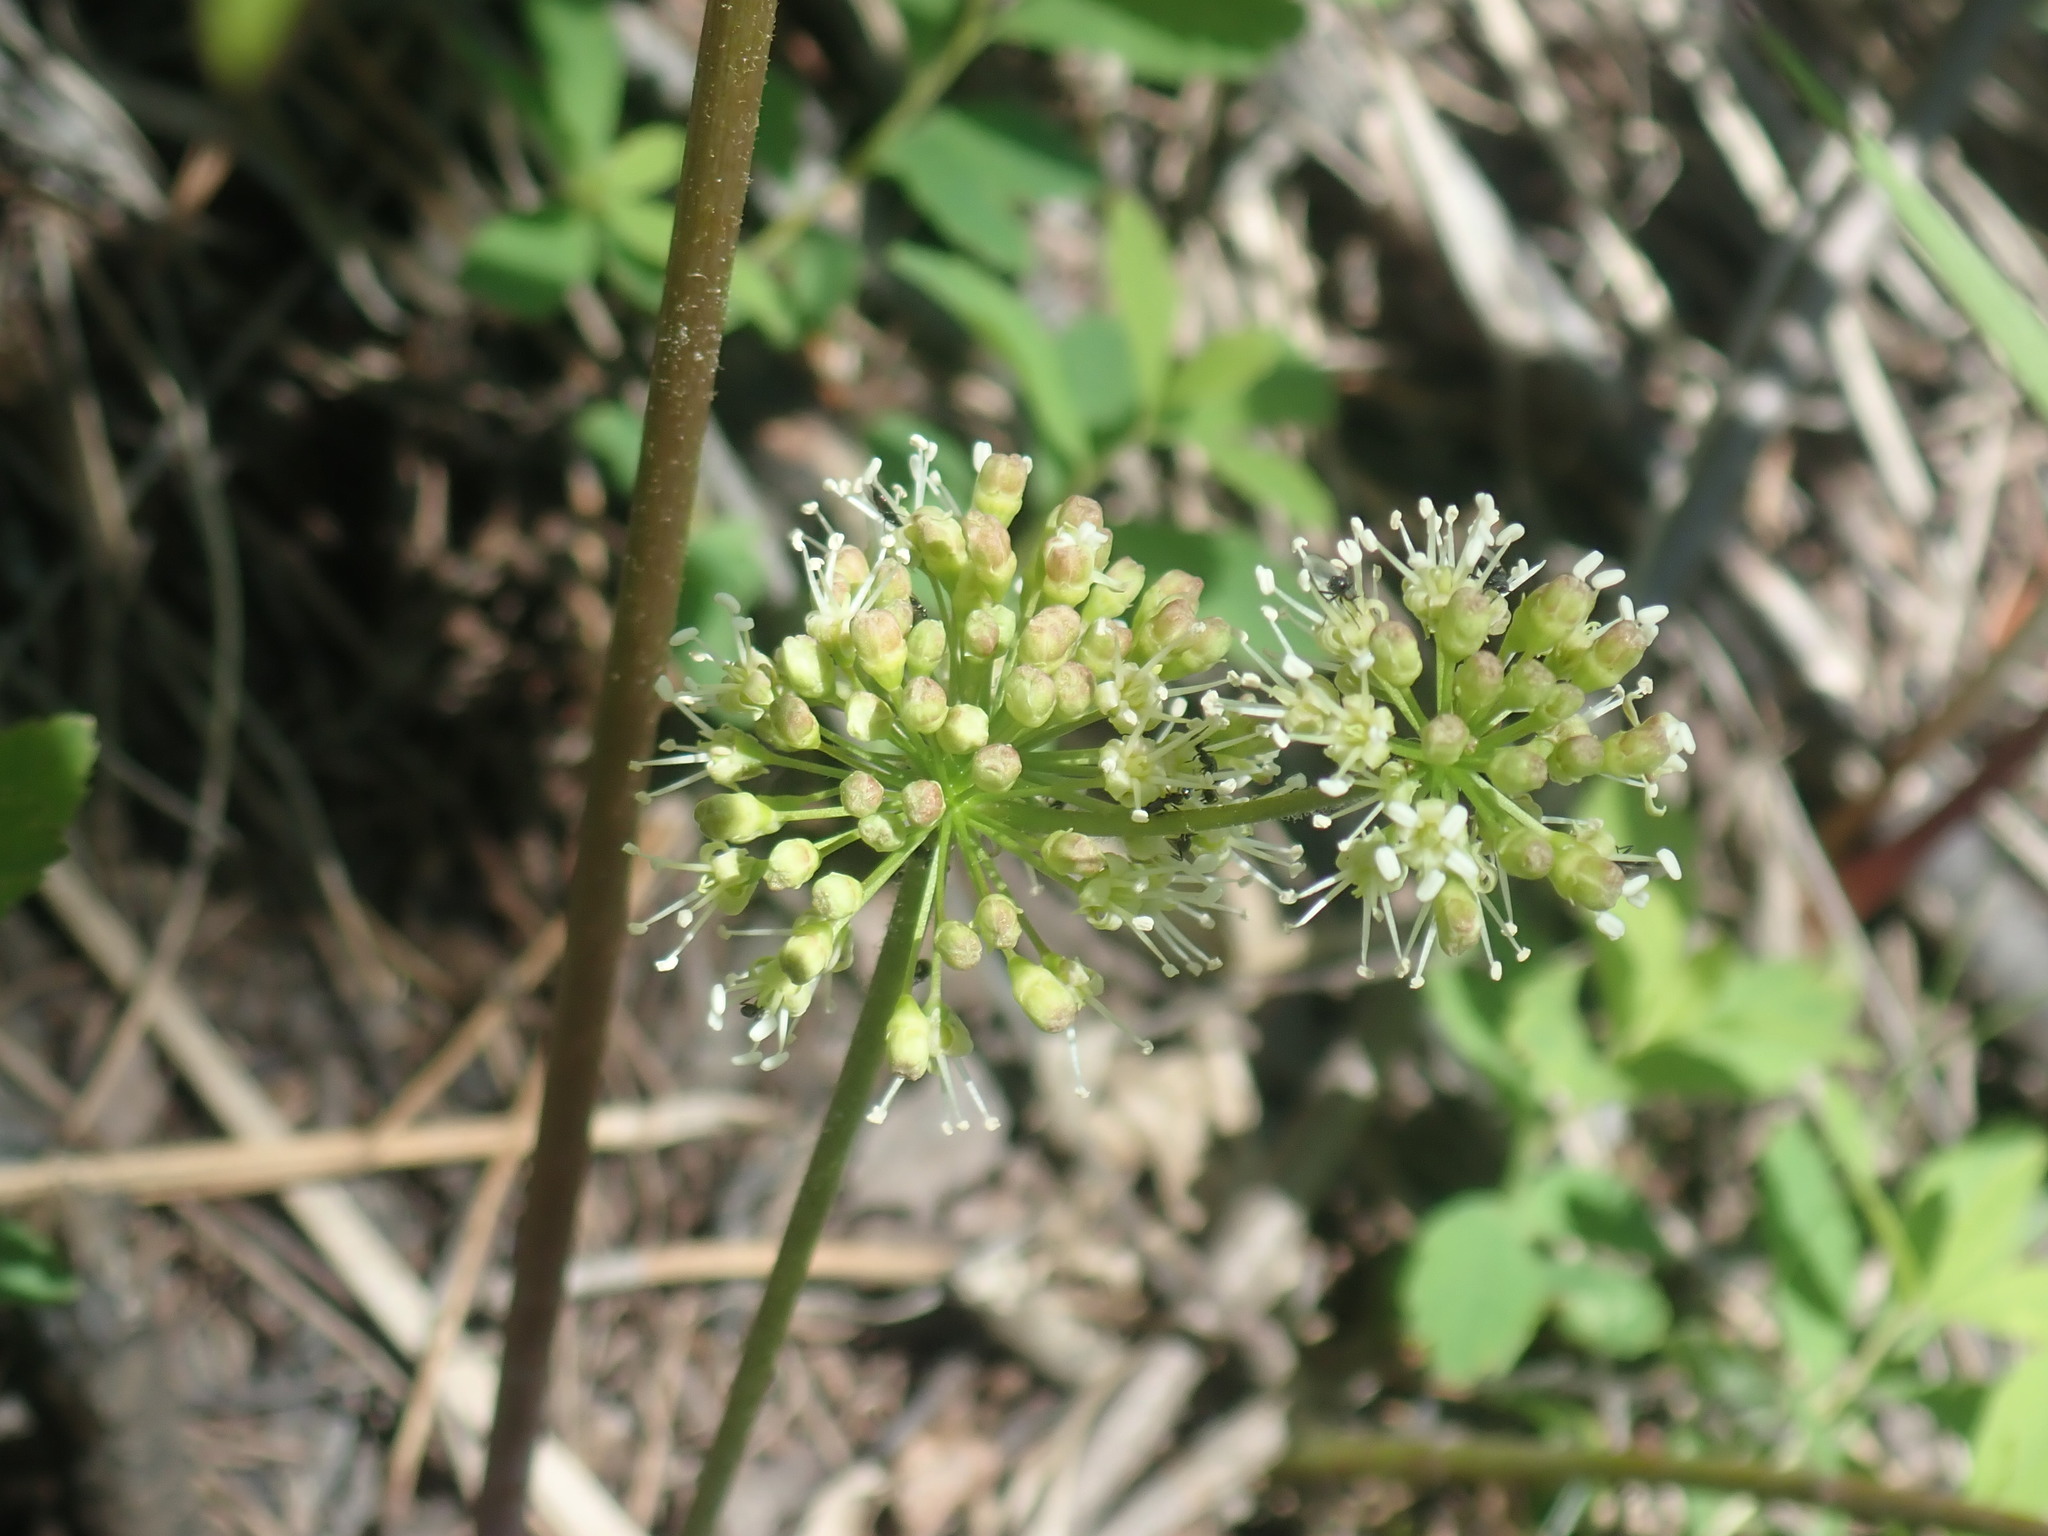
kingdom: Plantae
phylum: Tracheophyta
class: Magnoliopsida
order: Apiales
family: Araliaceae
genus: Aralia
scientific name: Aralia nudicaulis
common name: Wild sarsaparilla
